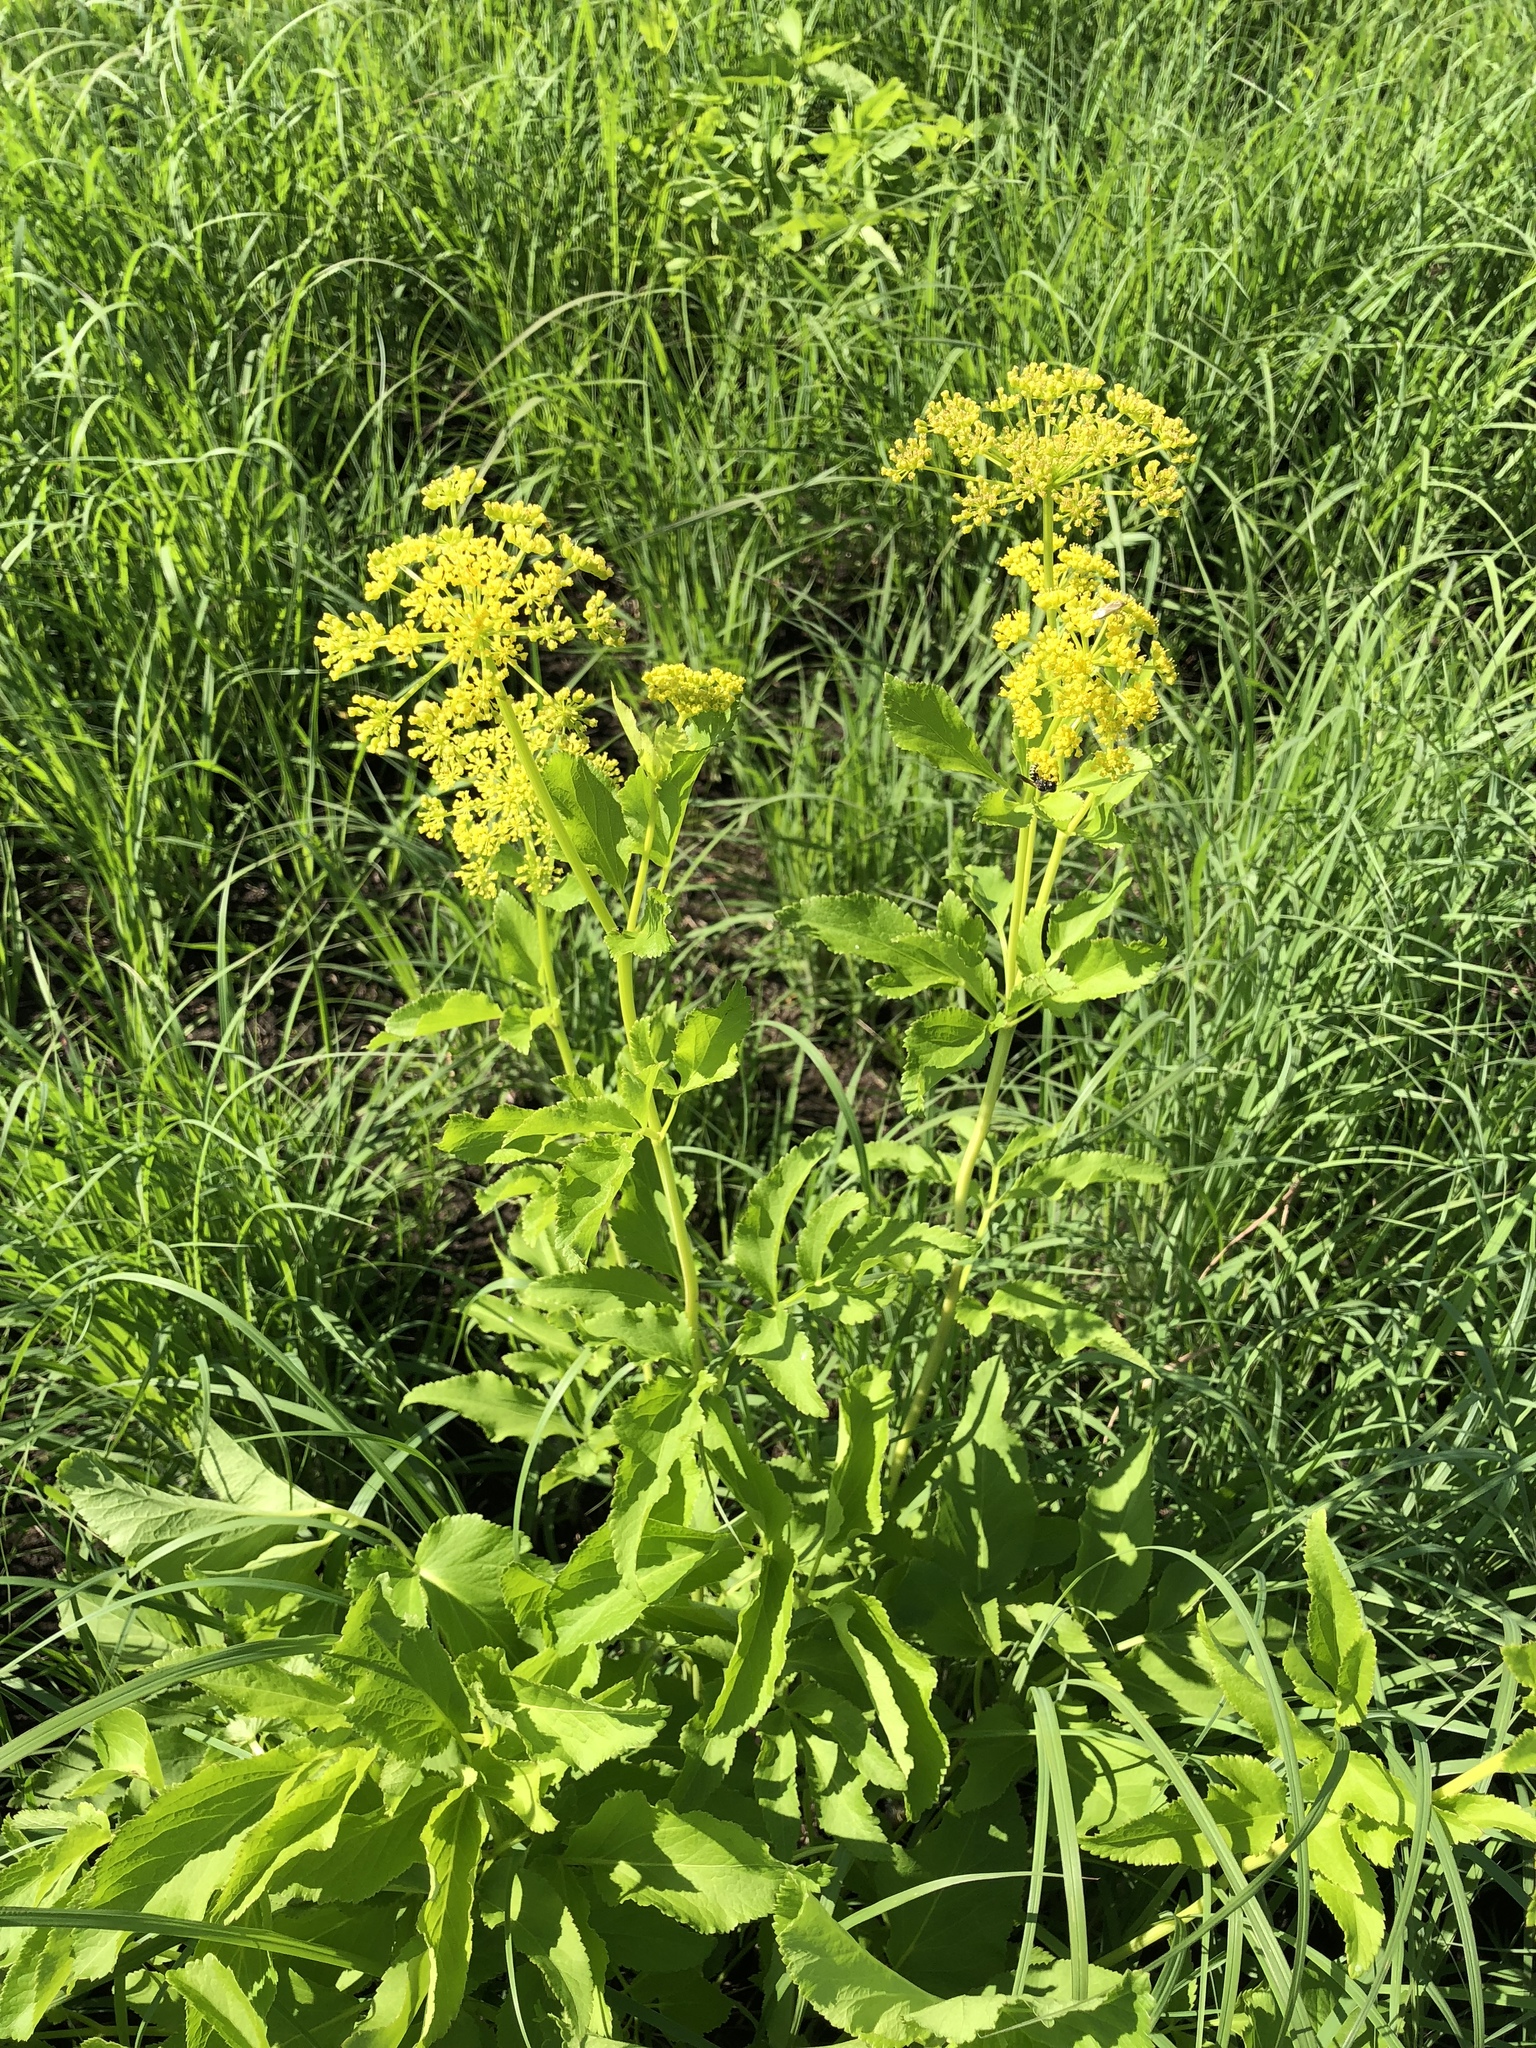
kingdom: Plantae
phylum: Tracheophyta
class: Magnoliopsida
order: Apiales
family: Apiaceae
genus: Pastinaca
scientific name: Pastinaca sativa
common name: Wild parsnip
